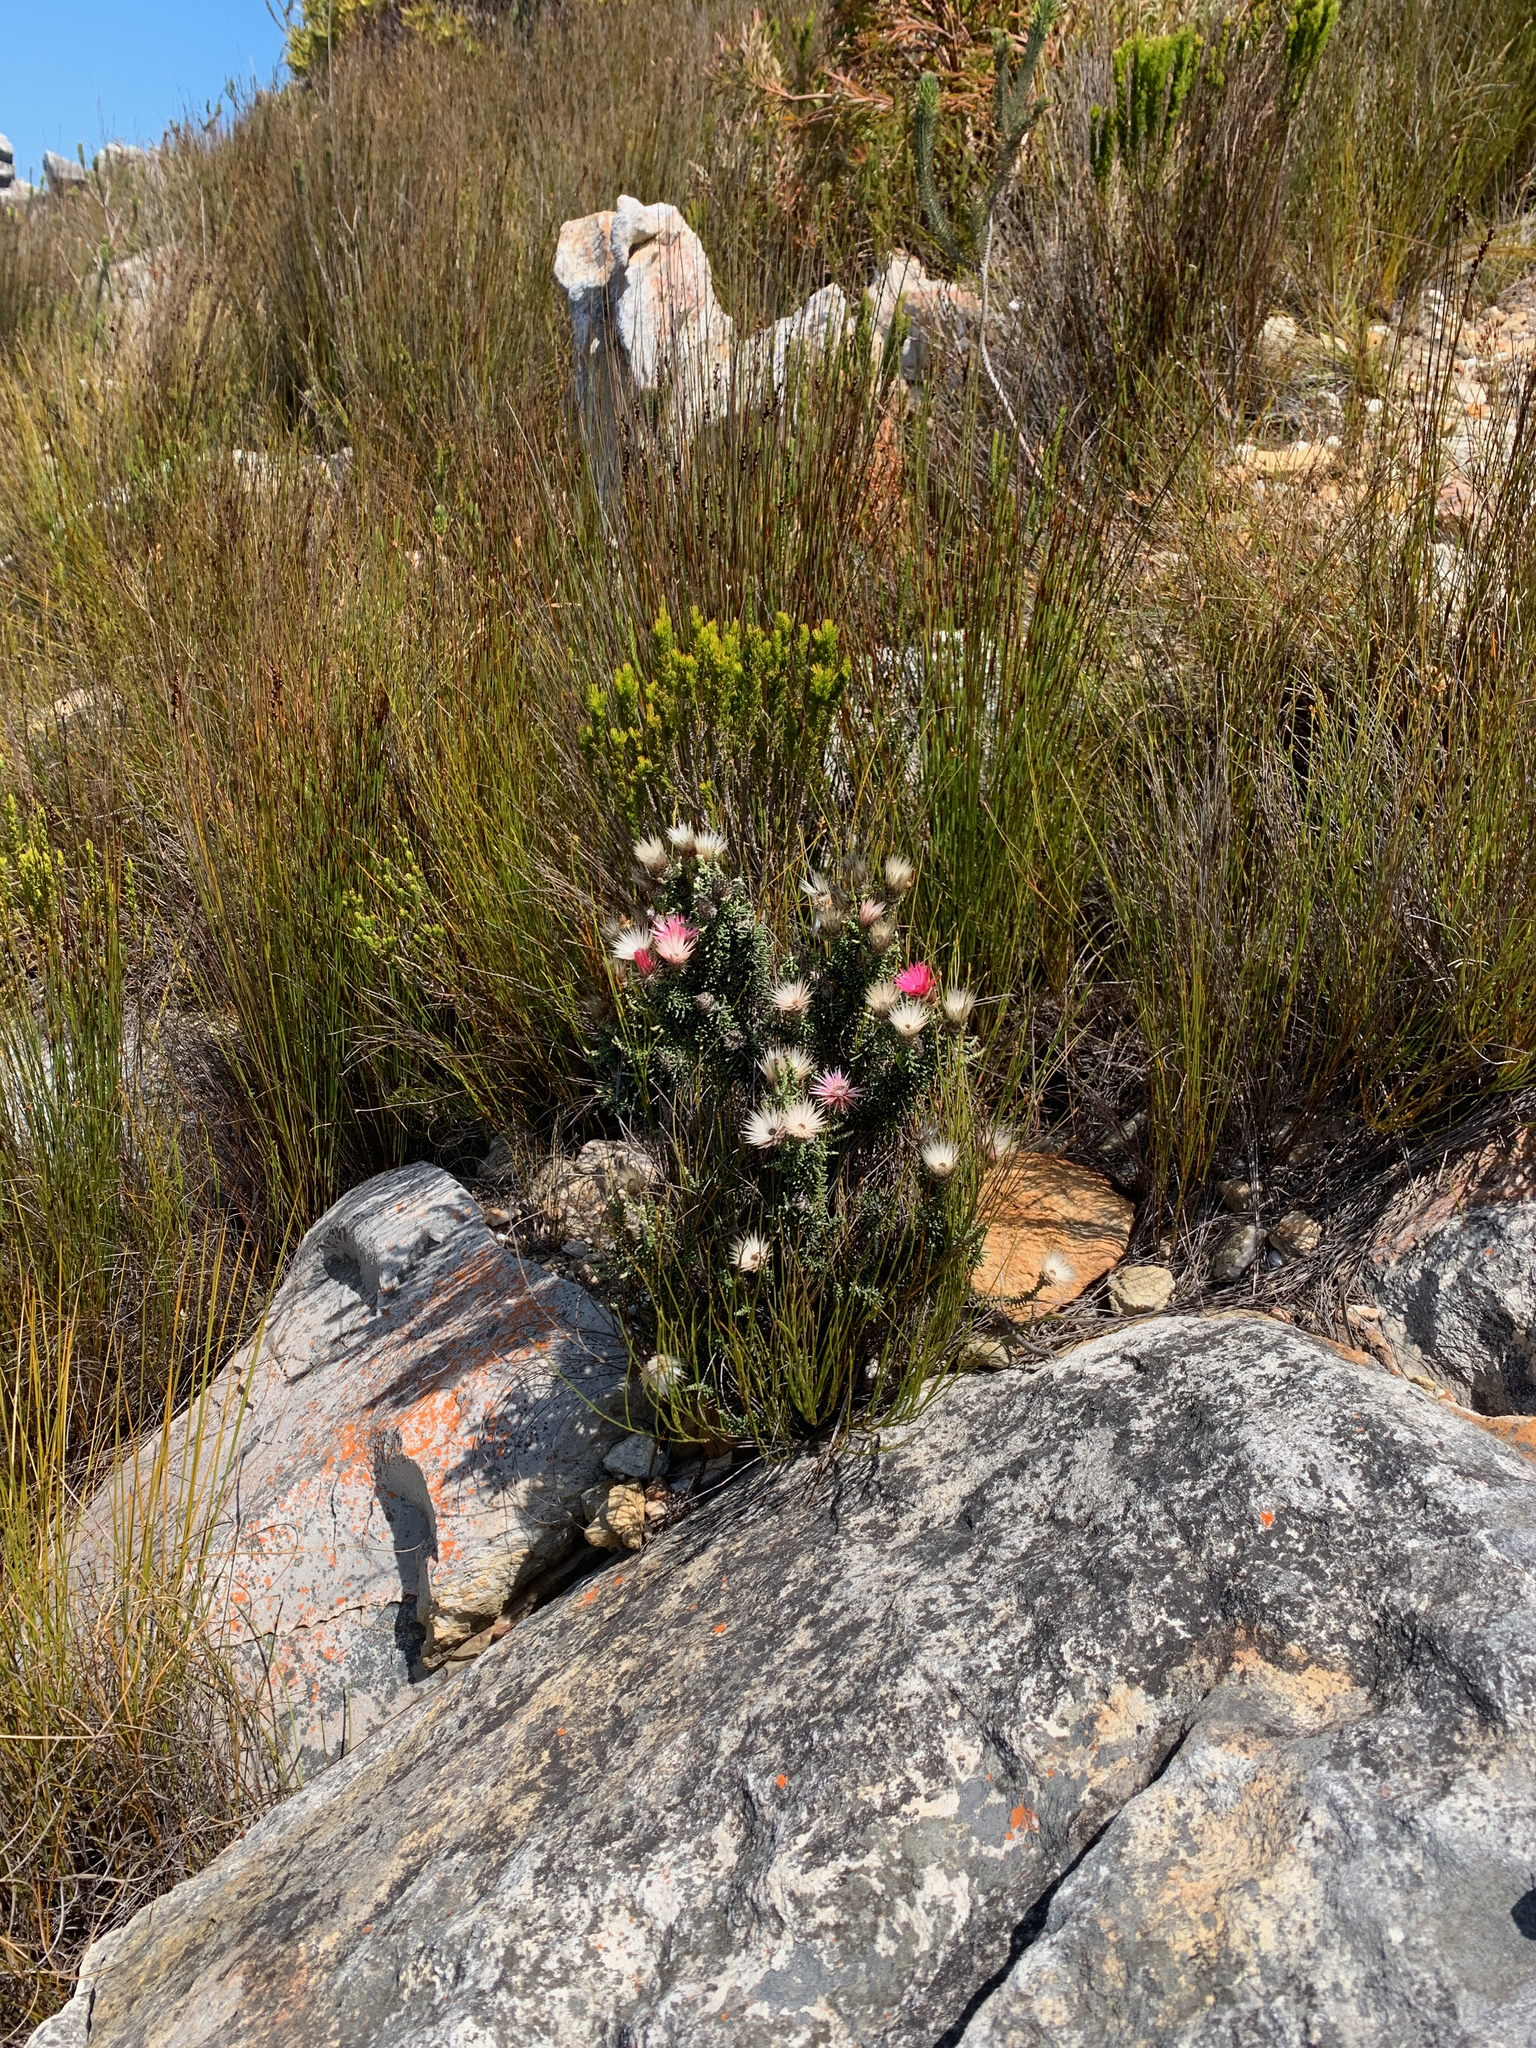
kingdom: Plantae
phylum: Tracheophyta
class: Magnoliopsida
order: Asterales
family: Asteraceae
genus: Phaenocoma
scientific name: Phaenocoma prolifera
